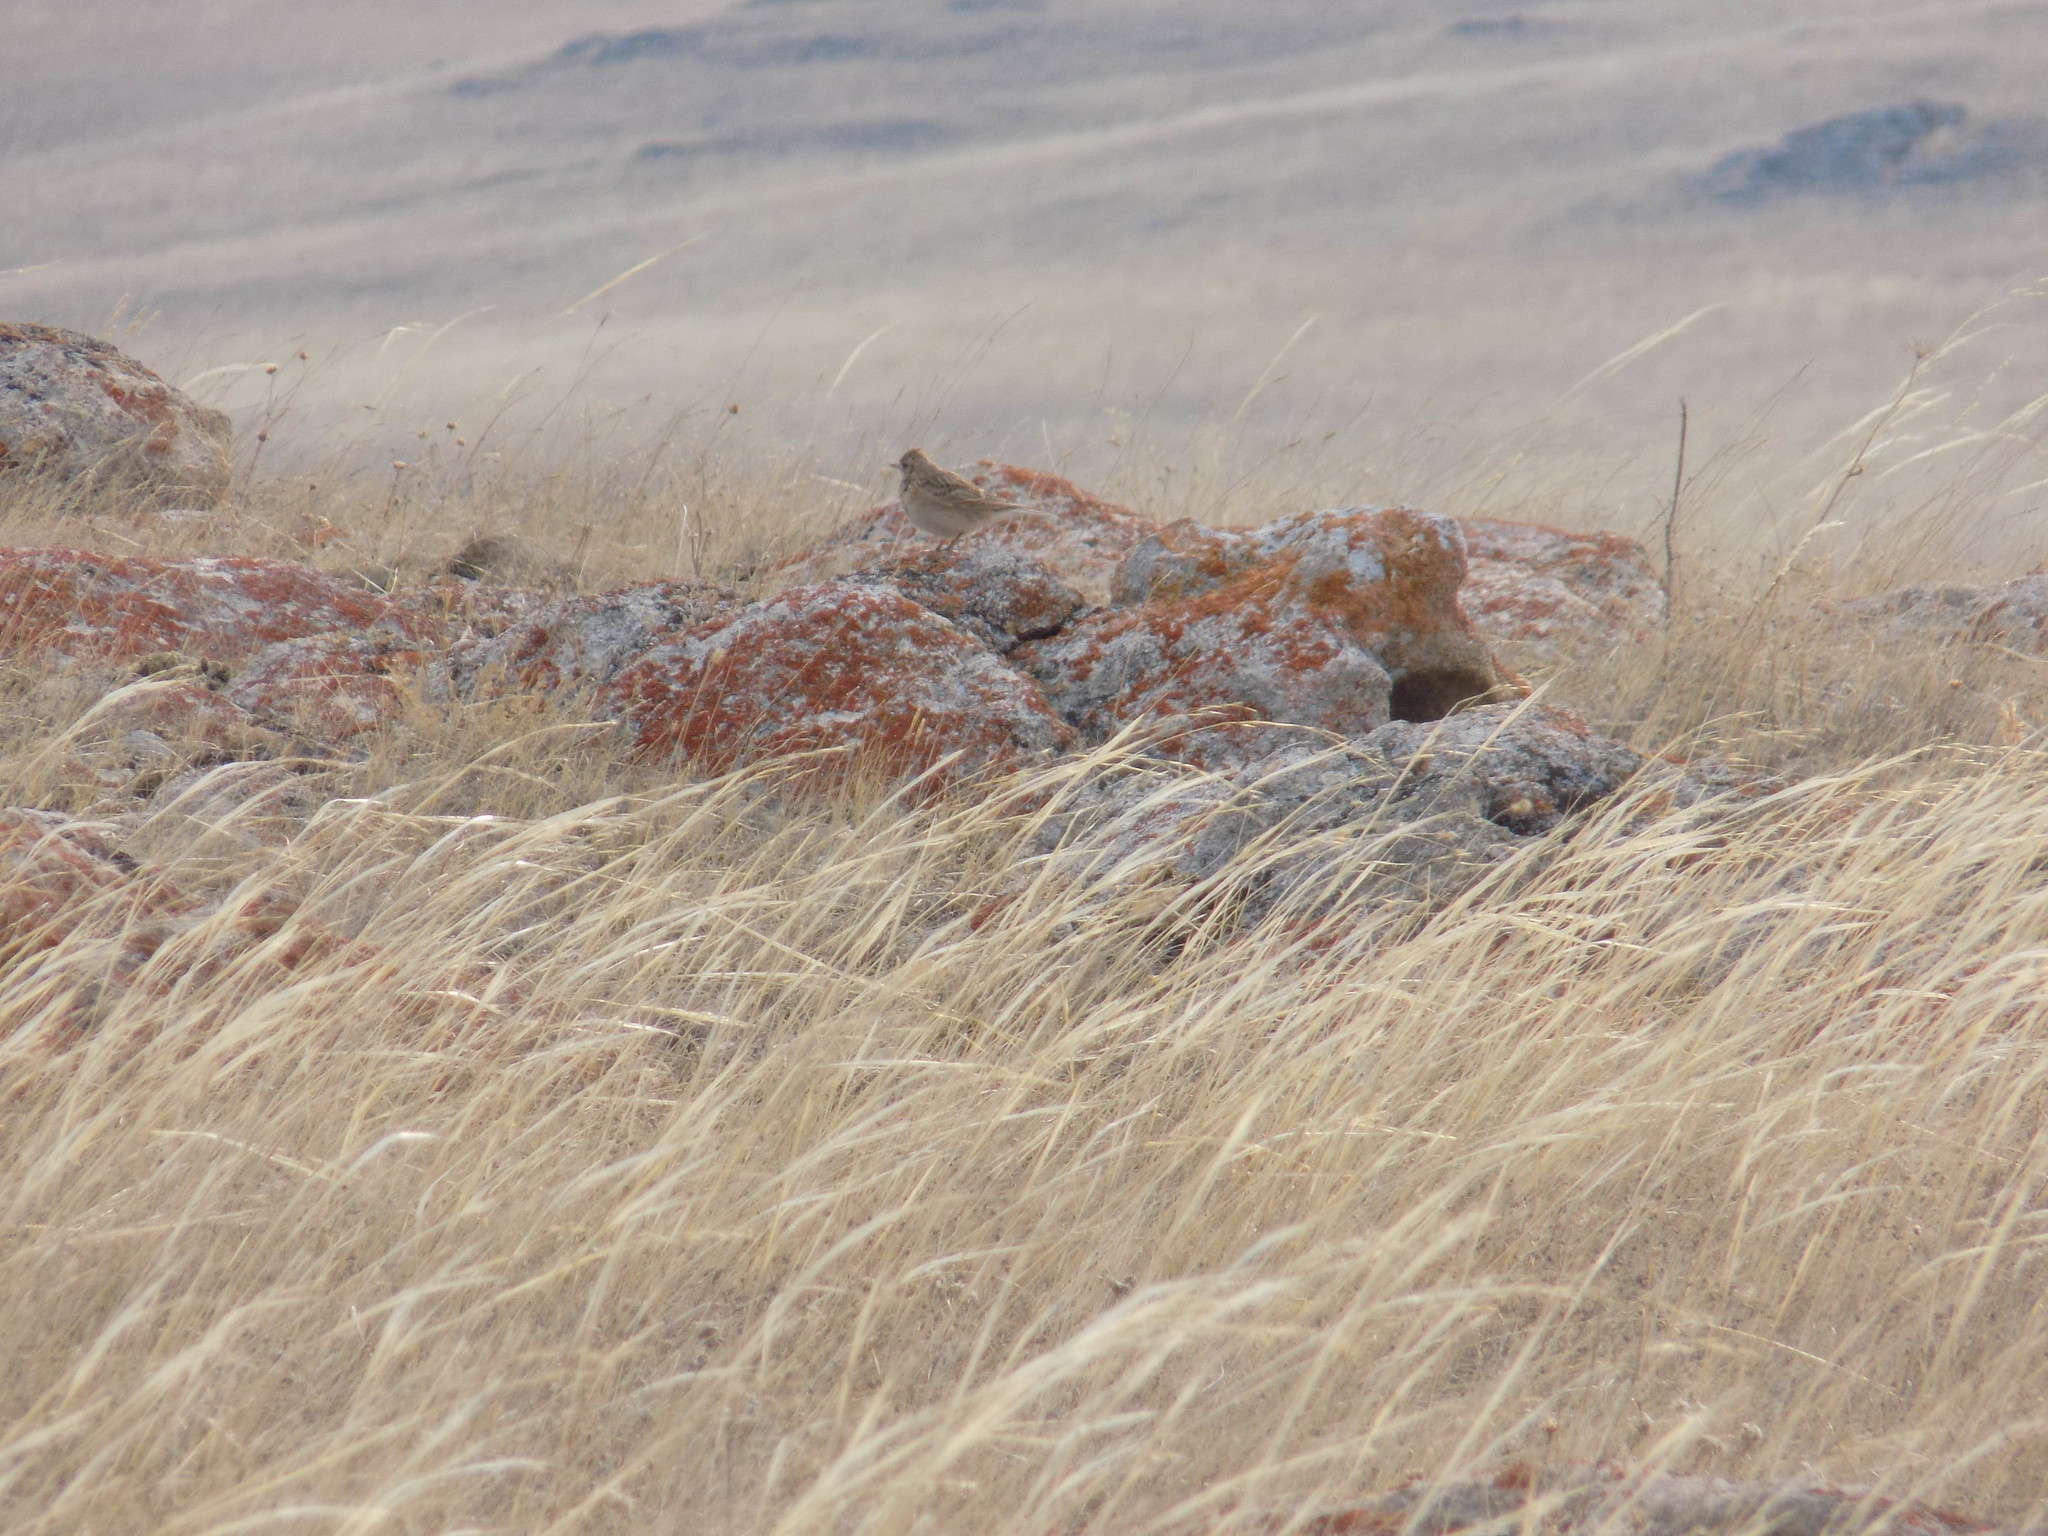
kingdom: Animalia
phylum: Chordata
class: Aves
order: Passeriformes
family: Alaudidae
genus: Alauda
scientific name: Alauda arvensis
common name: Eurasian skylark
